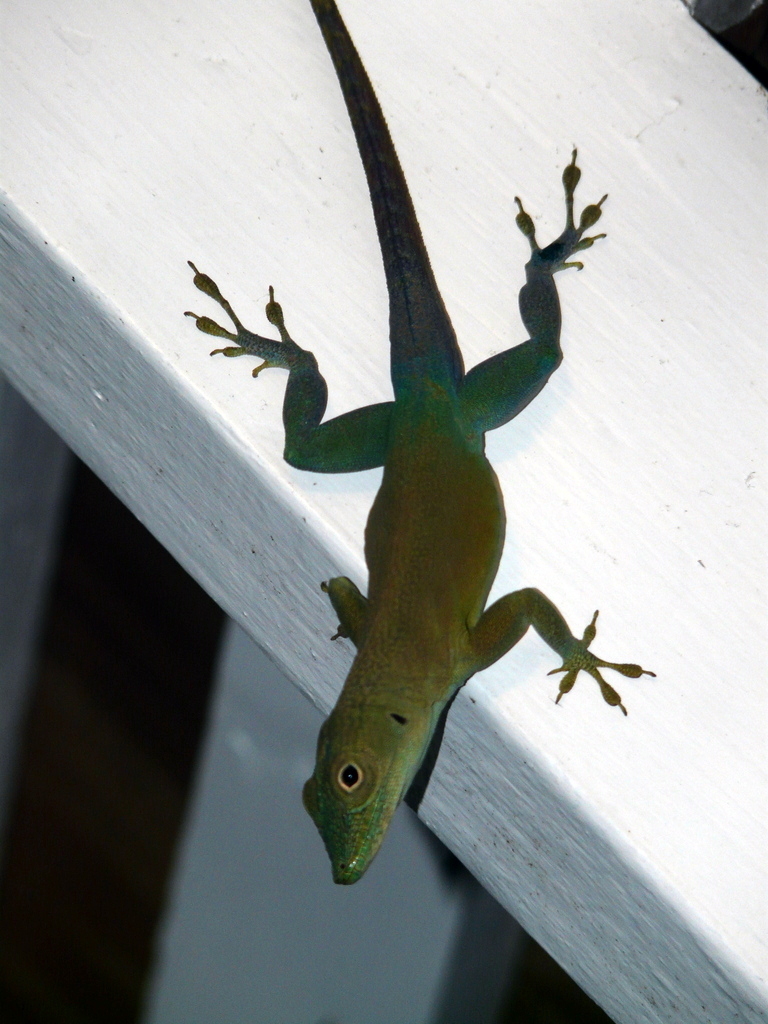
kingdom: Animalia
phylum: Chordata
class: Squamata
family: Dactyloidae
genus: Anolis
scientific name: Anolis grahami
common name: Graham's anole
